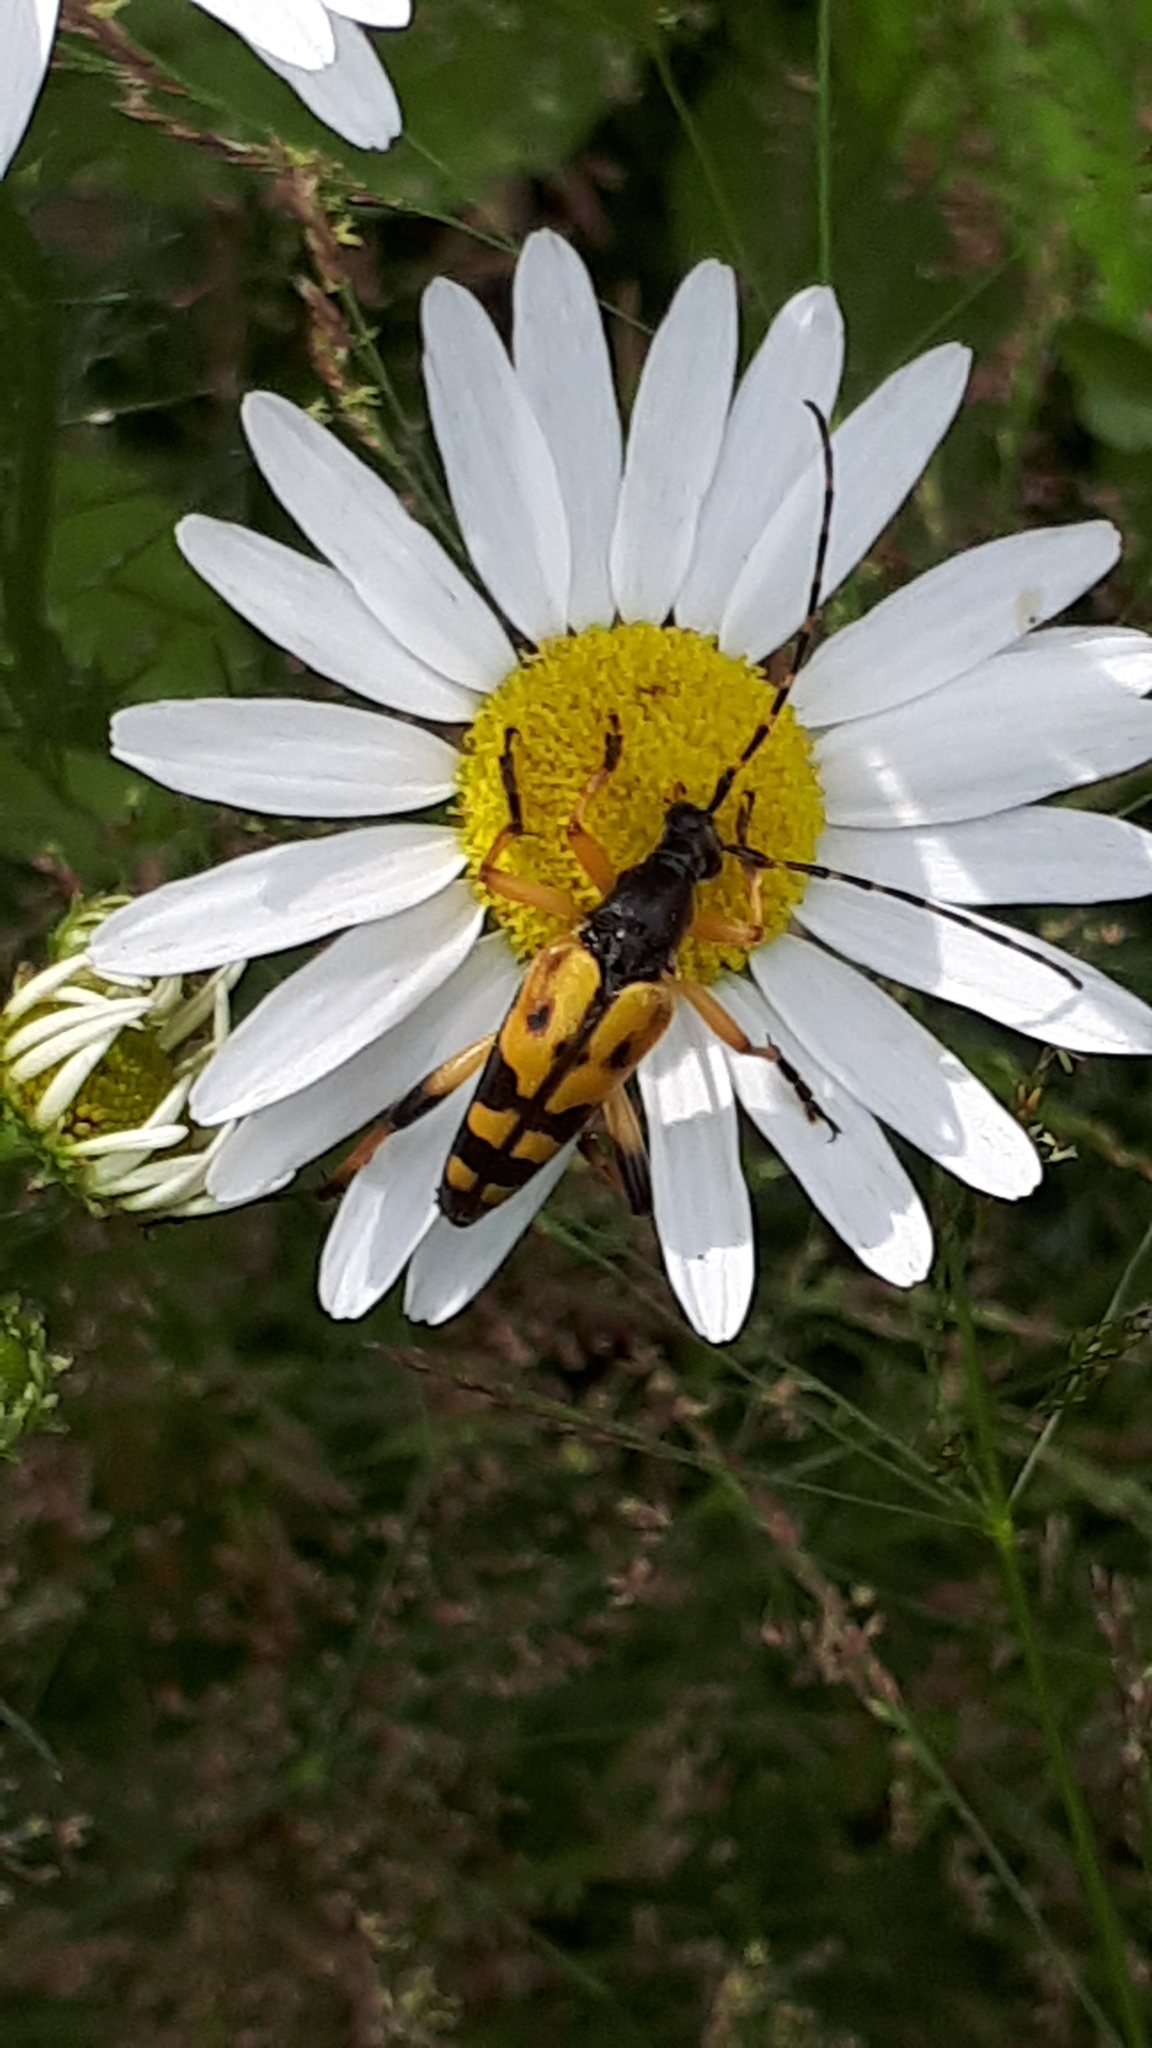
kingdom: Animalia
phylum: Arthropoda
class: Insecta
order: Coleoptera
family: Cerambycidae
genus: Rutpela
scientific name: Rutpela maculata
